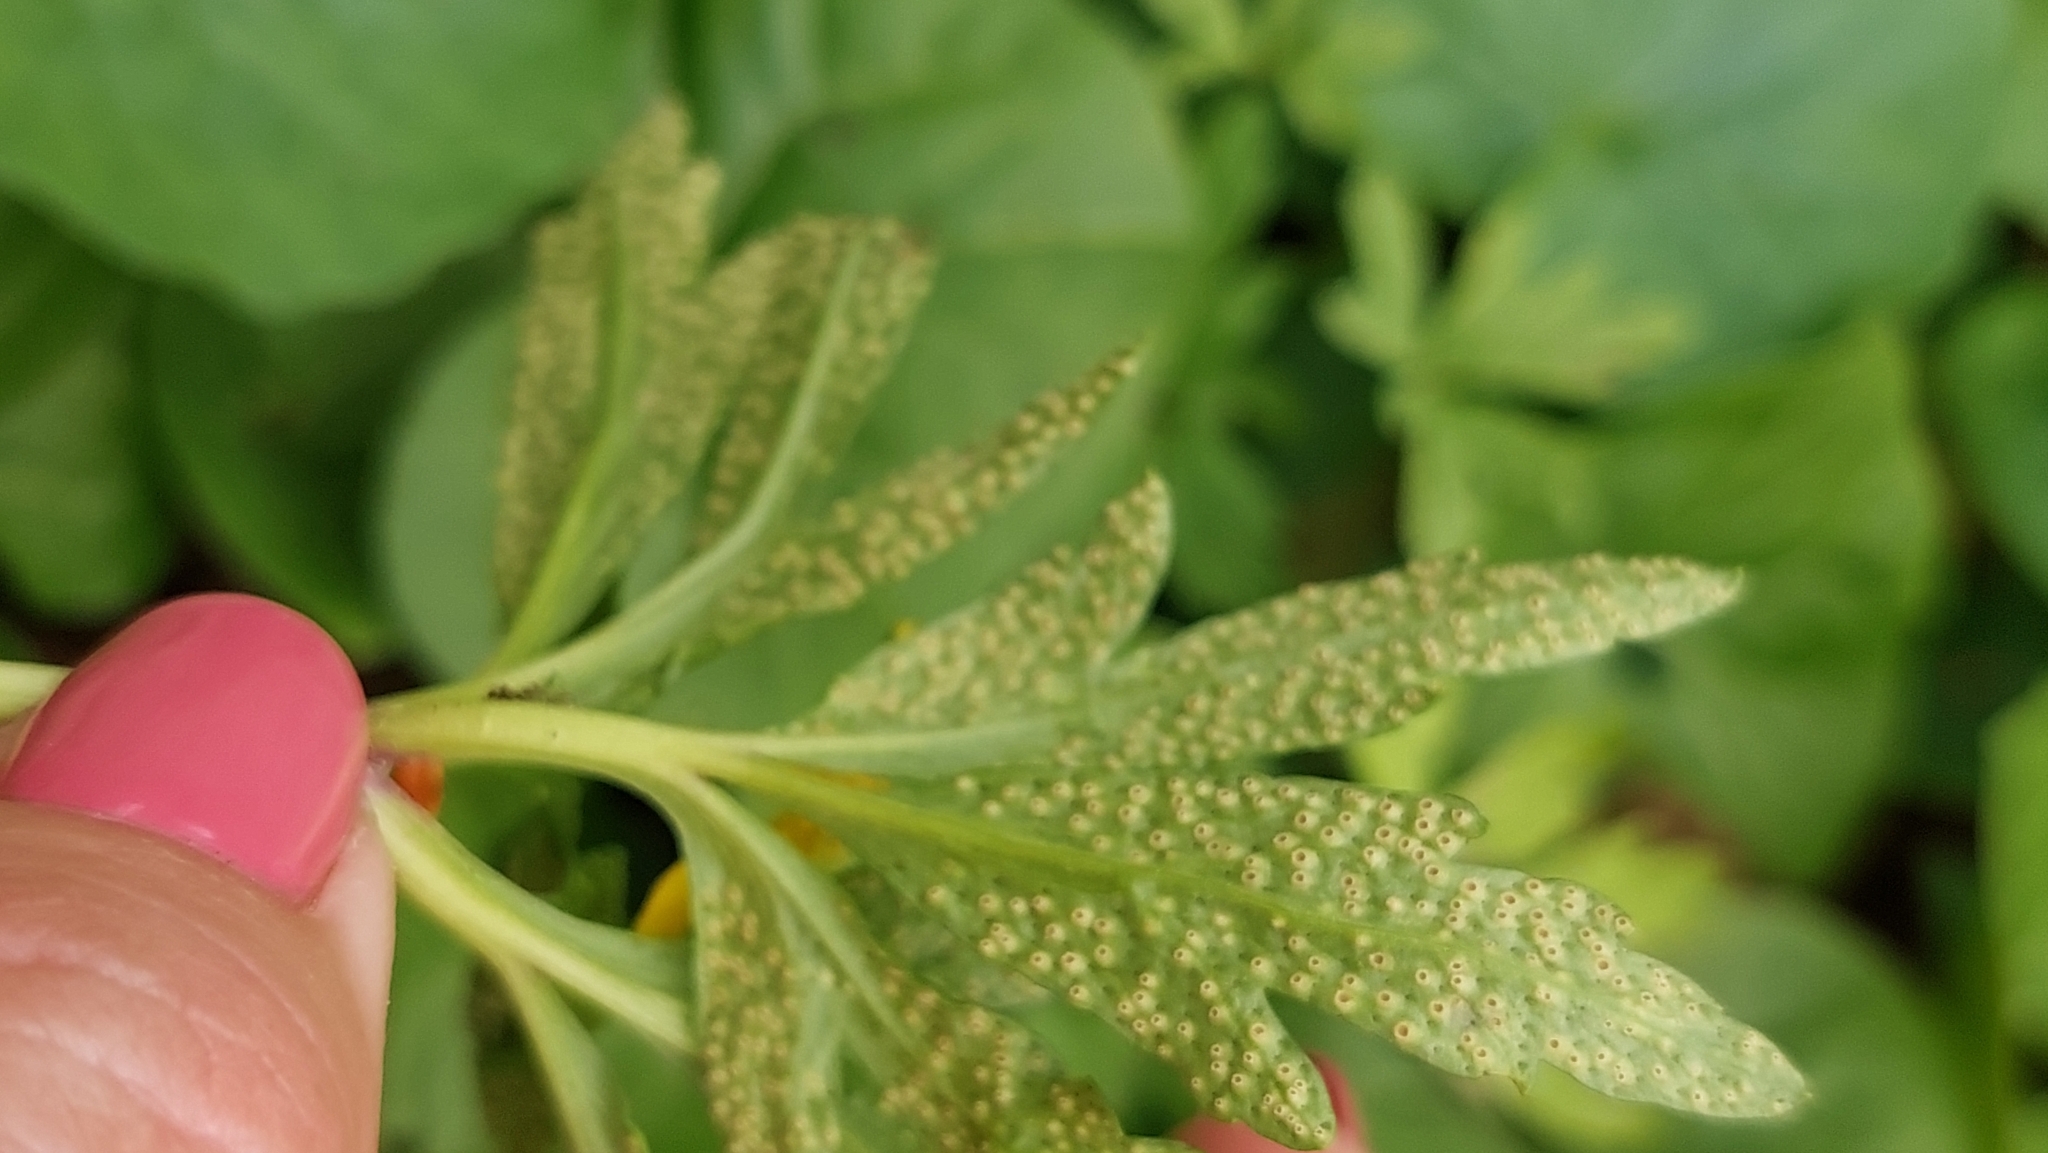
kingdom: Plantae
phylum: Tracheophyta
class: Magnoliopsida
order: Ranunculales
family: Ranunculaceae
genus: Anemone
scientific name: Anemone ranunculoides
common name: Yellow anemone
